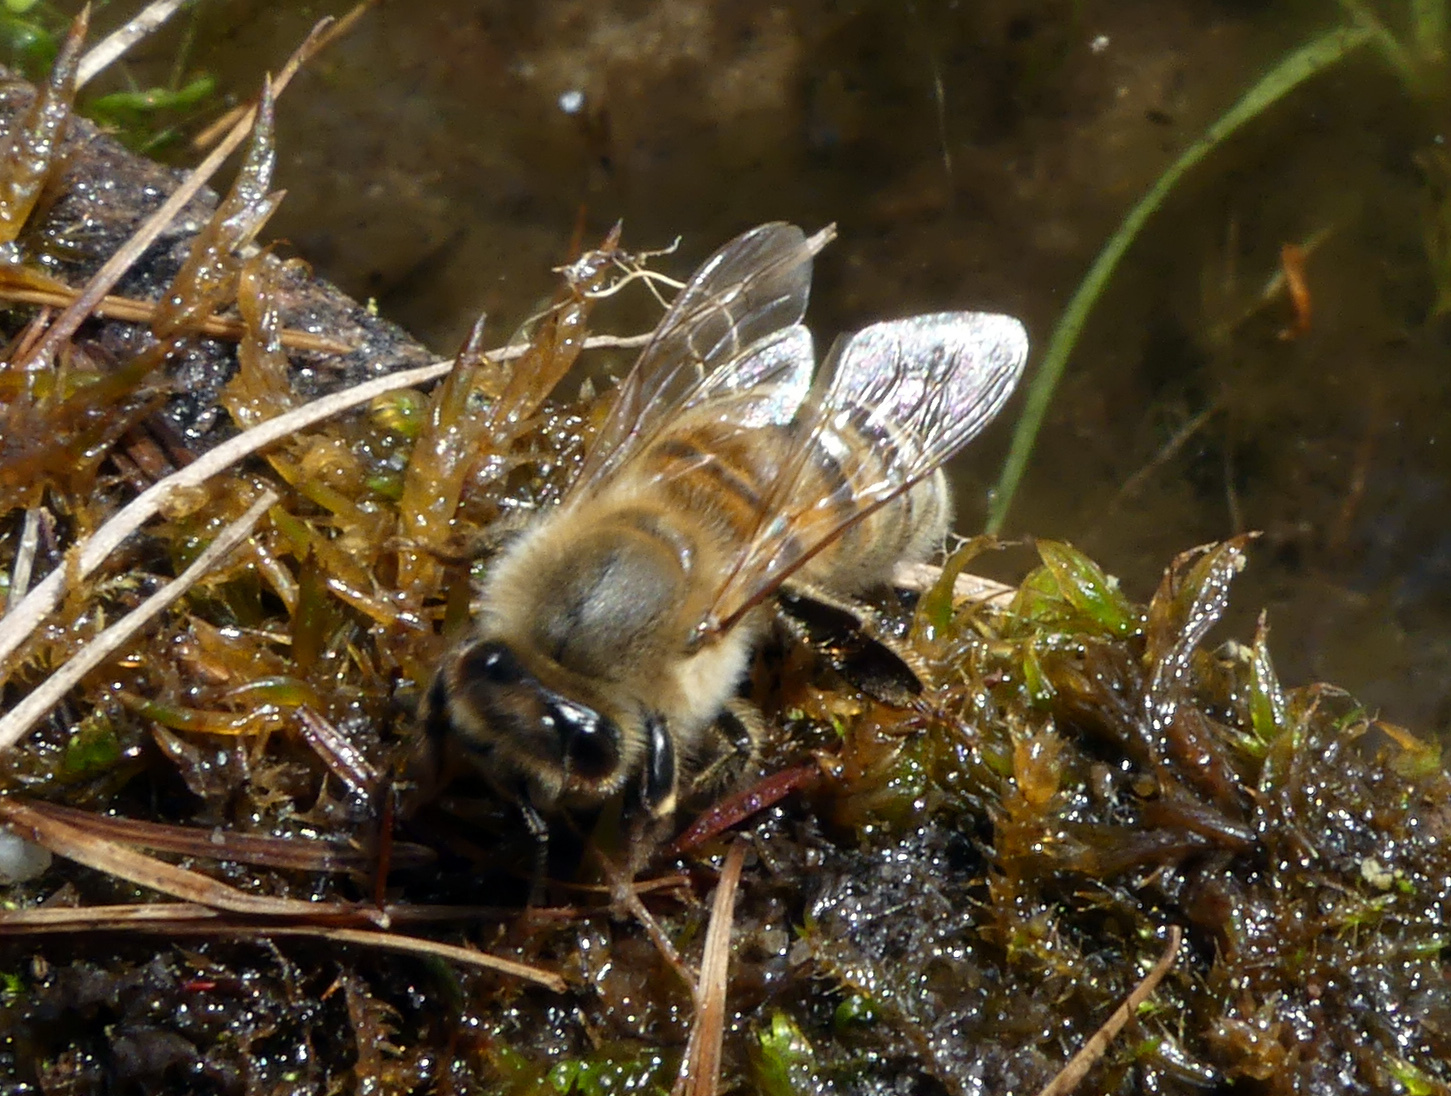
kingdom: Animalia
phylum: Arthropoda
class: Insecta
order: Hymenoptera
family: Apidae
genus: Apis
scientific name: Apis mellifera
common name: Honey bee
